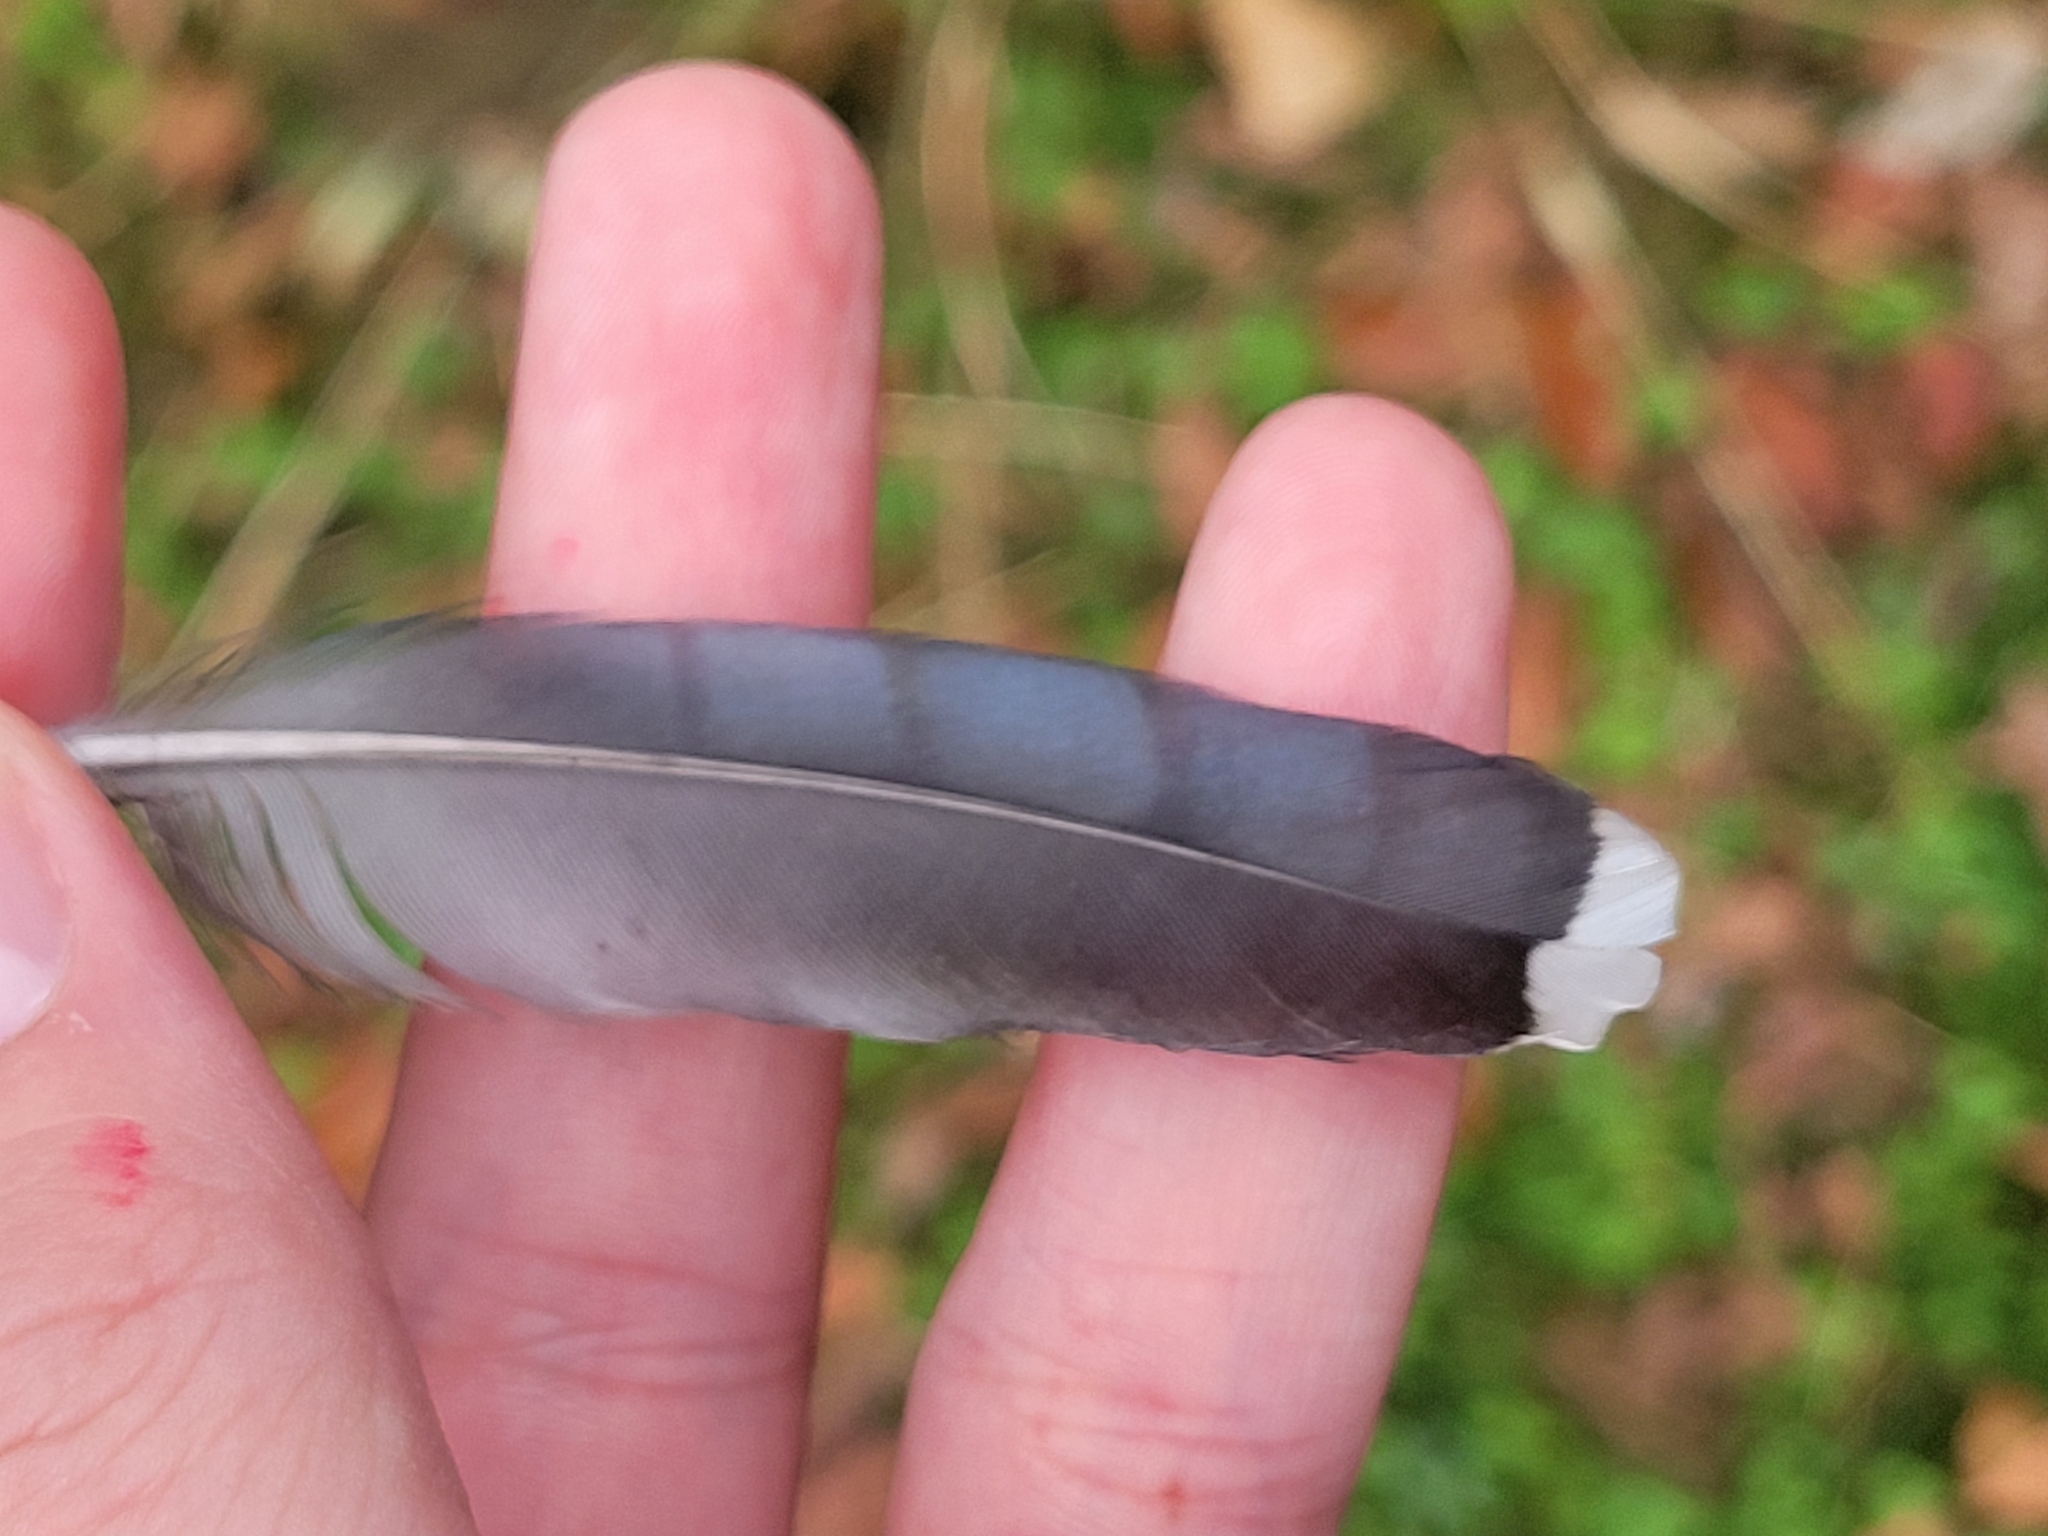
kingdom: Animalia
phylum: Chordata
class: Aves
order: Passeriformes
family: Corvidae
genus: Cyanocitta
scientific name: Cyanocitta cristata
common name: Blue jay
